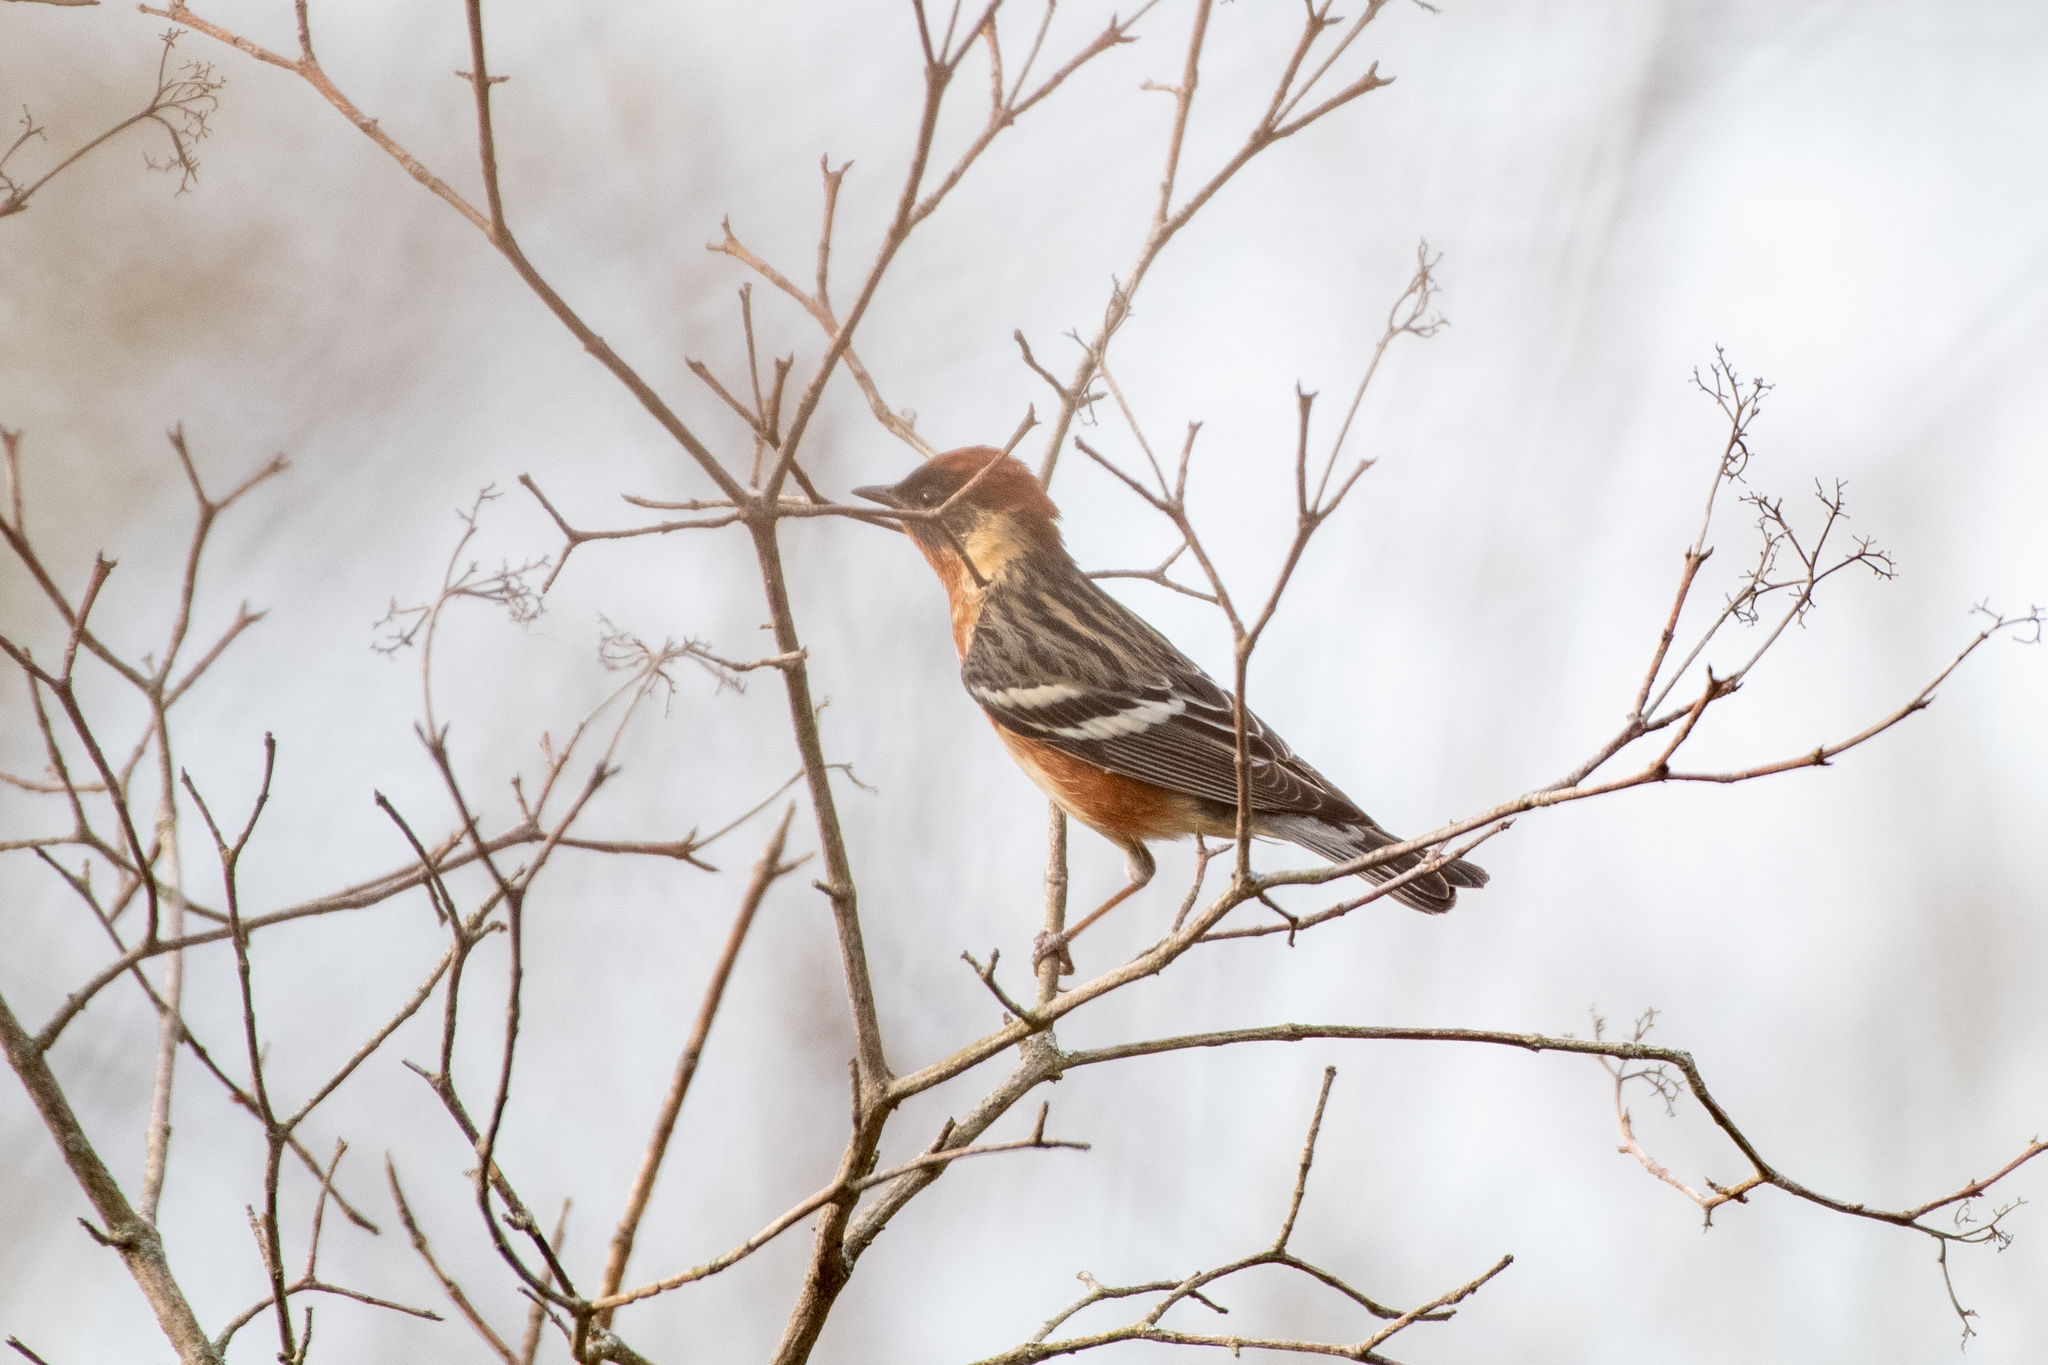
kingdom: Animalia
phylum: Chordata
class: Aves
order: Passeriformes
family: Parulidae
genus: Setophaga
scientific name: Setophaga castanea
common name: Bay-breasted warbler
